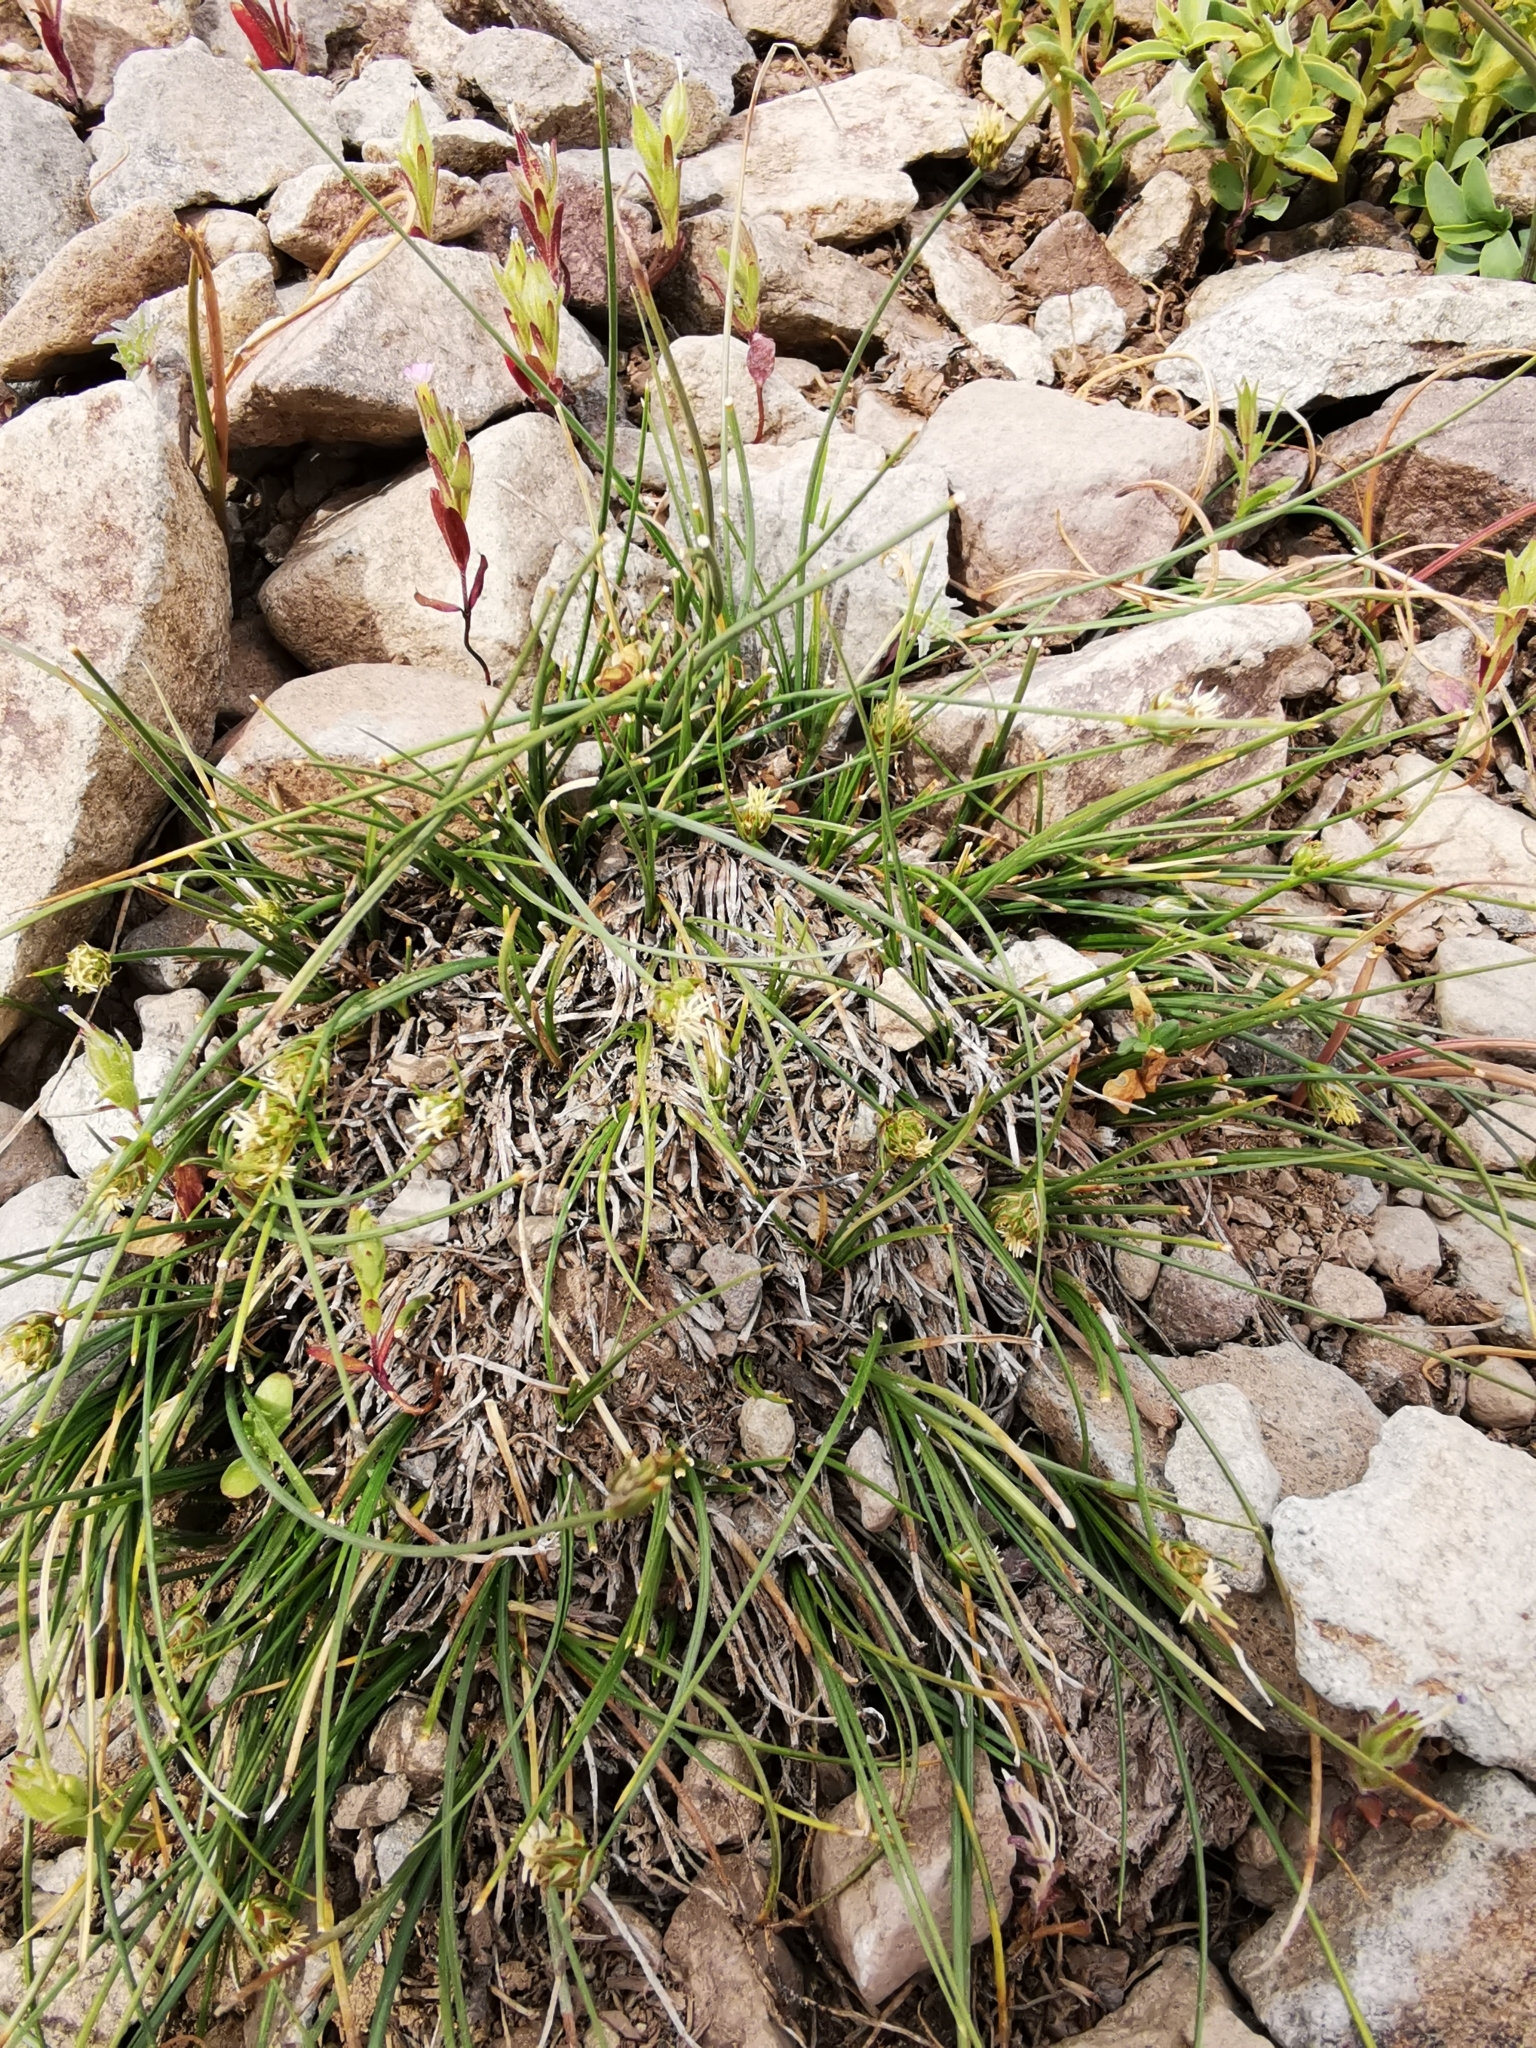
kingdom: Plantae
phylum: Tracheophyta
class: Liliopsida
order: Poales
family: Cyperaceae
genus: Carex
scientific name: Carex andina
